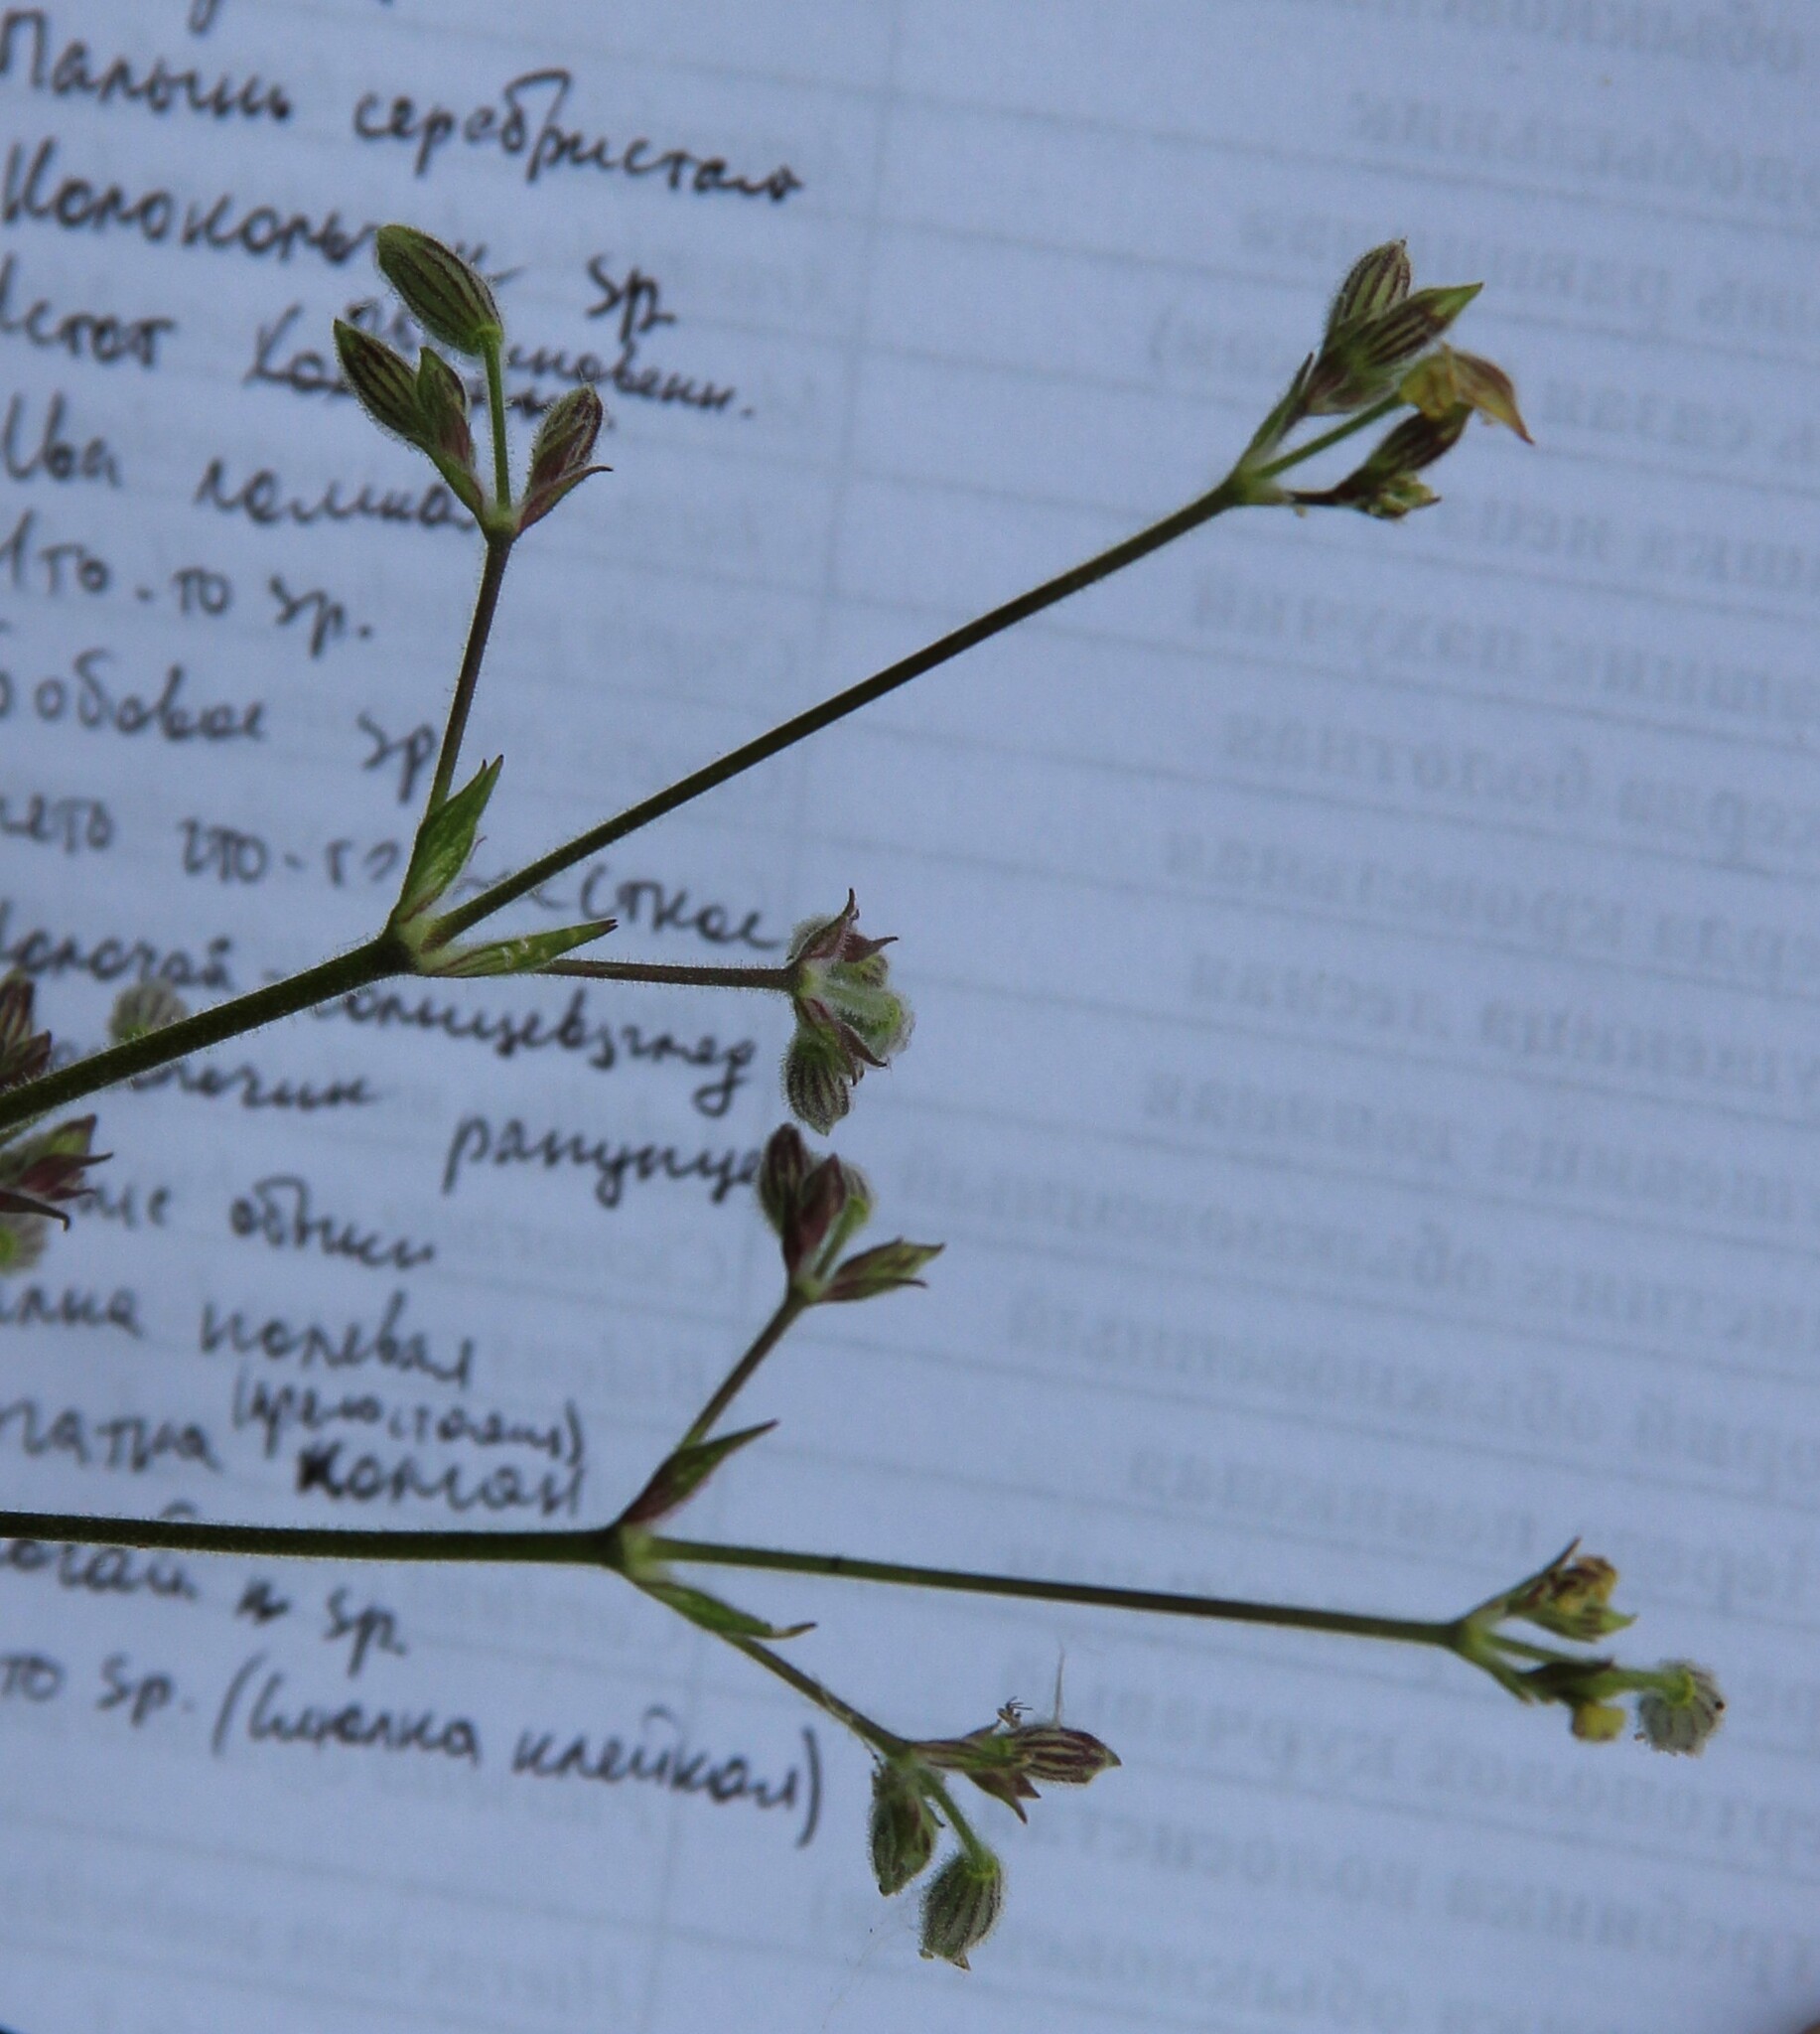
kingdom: Plantae
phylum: Tracheophyta
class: Magnoliopsida
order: Caryophyllales
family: Caryophyllaceae
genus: Silene
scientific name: Silene nutans
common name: Nottingham catchfly
